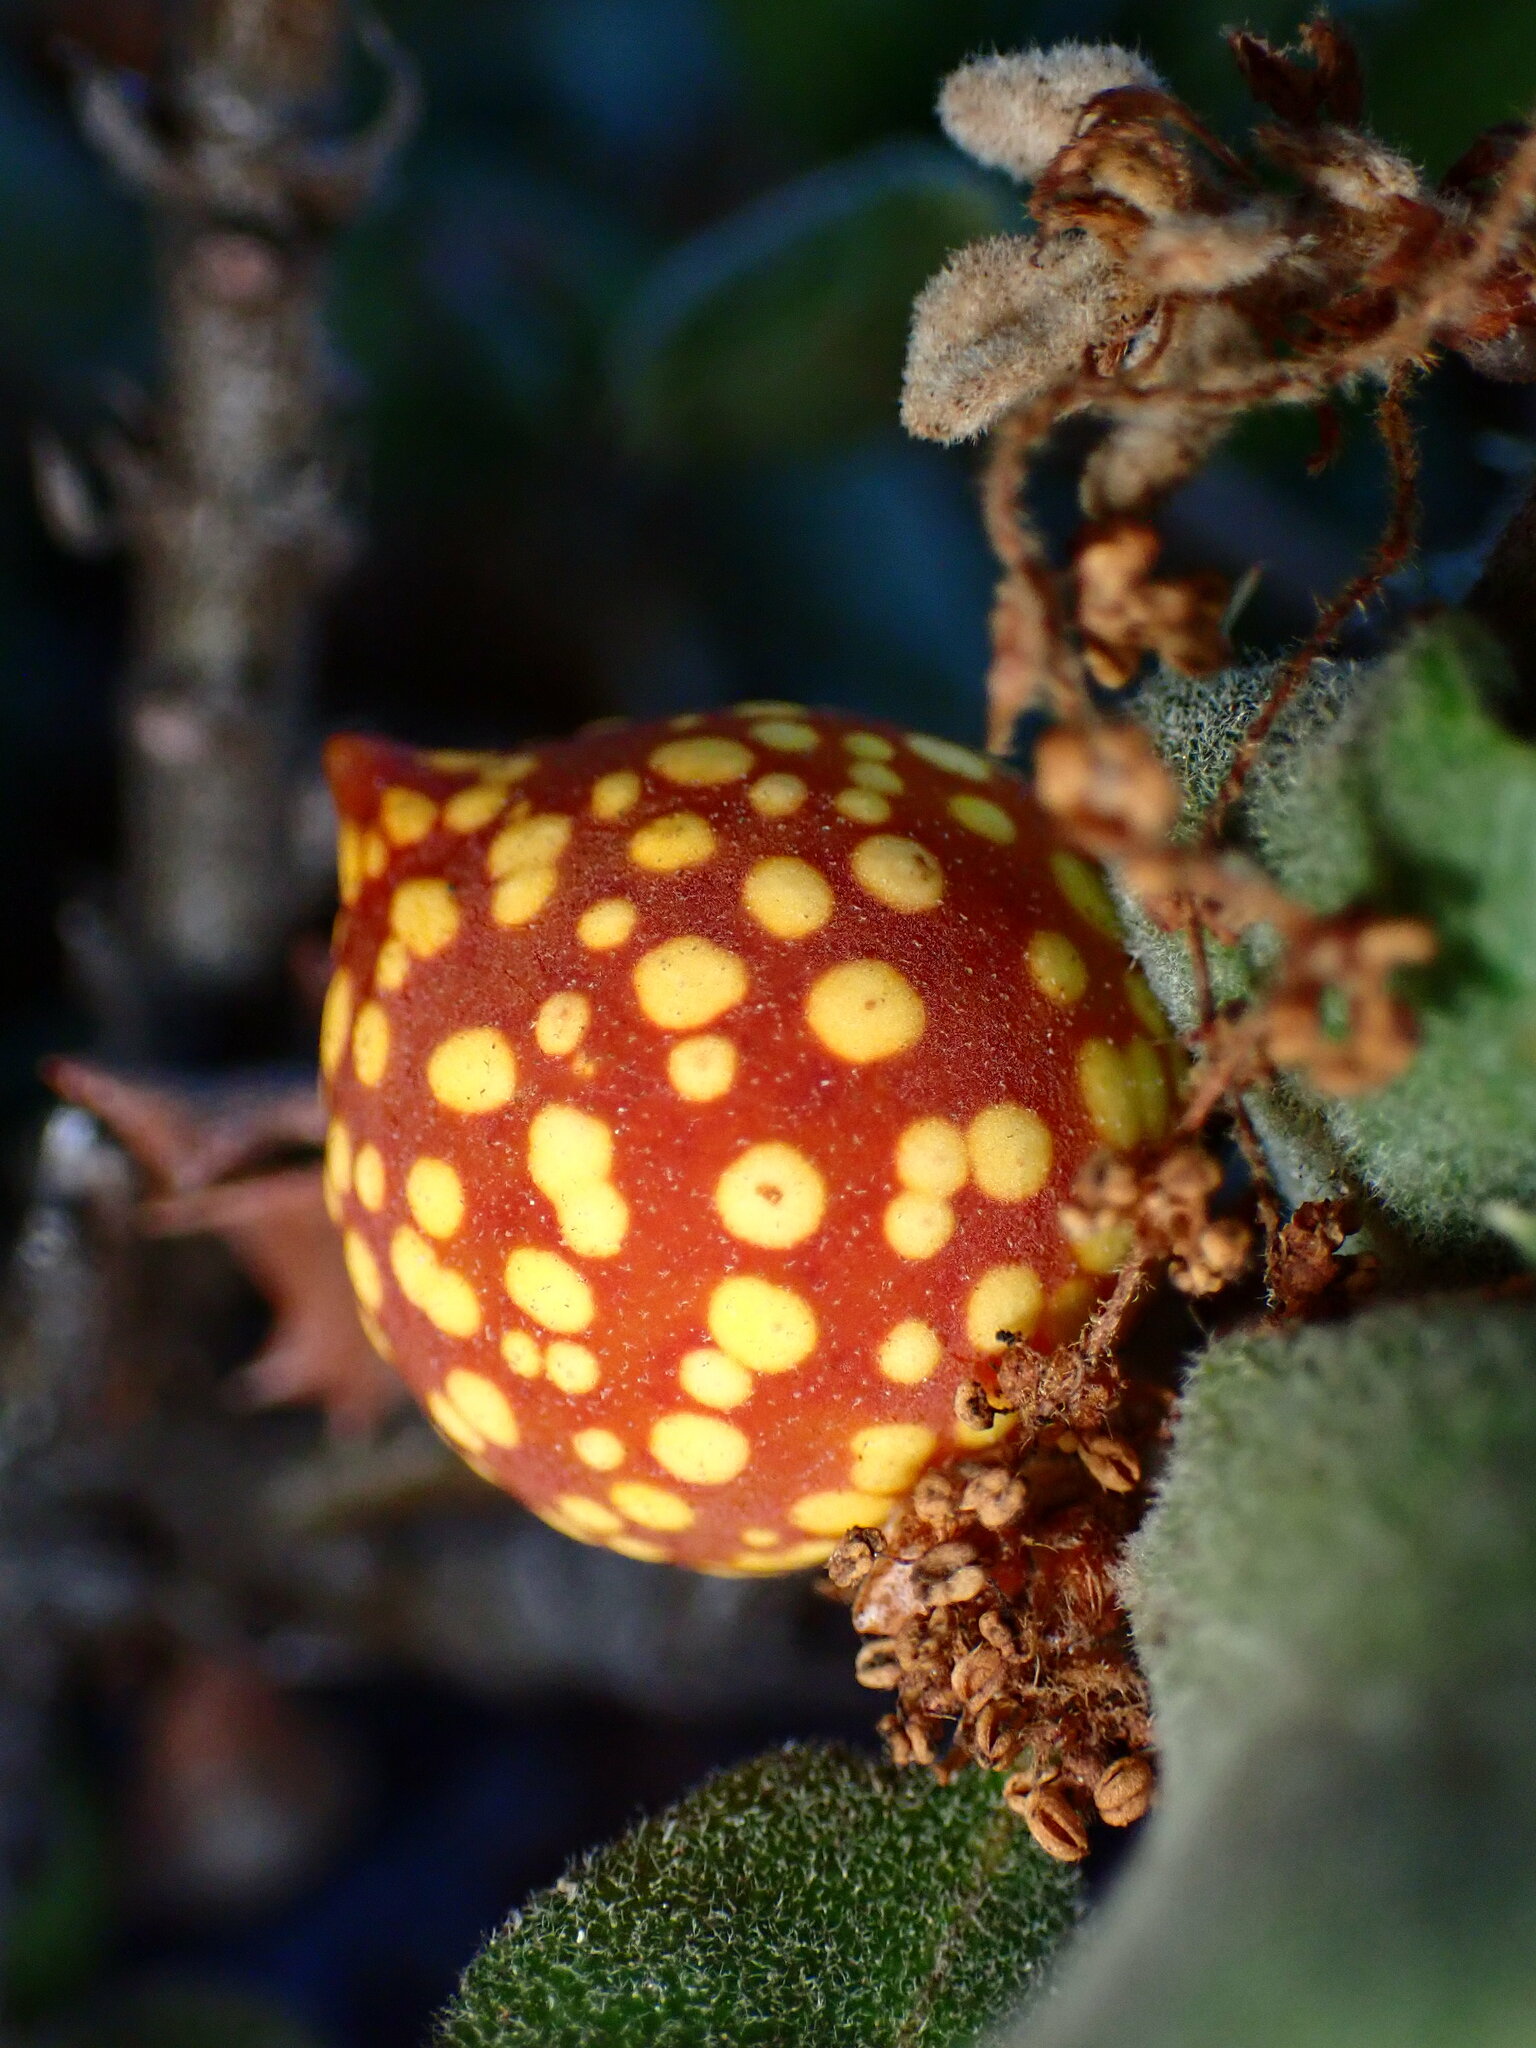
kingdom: Animalia
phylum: Arthropoda
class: Insecta
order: Hymenoptera
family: Cynipidae
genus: Burnettweldia
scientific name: Burnettweldia
